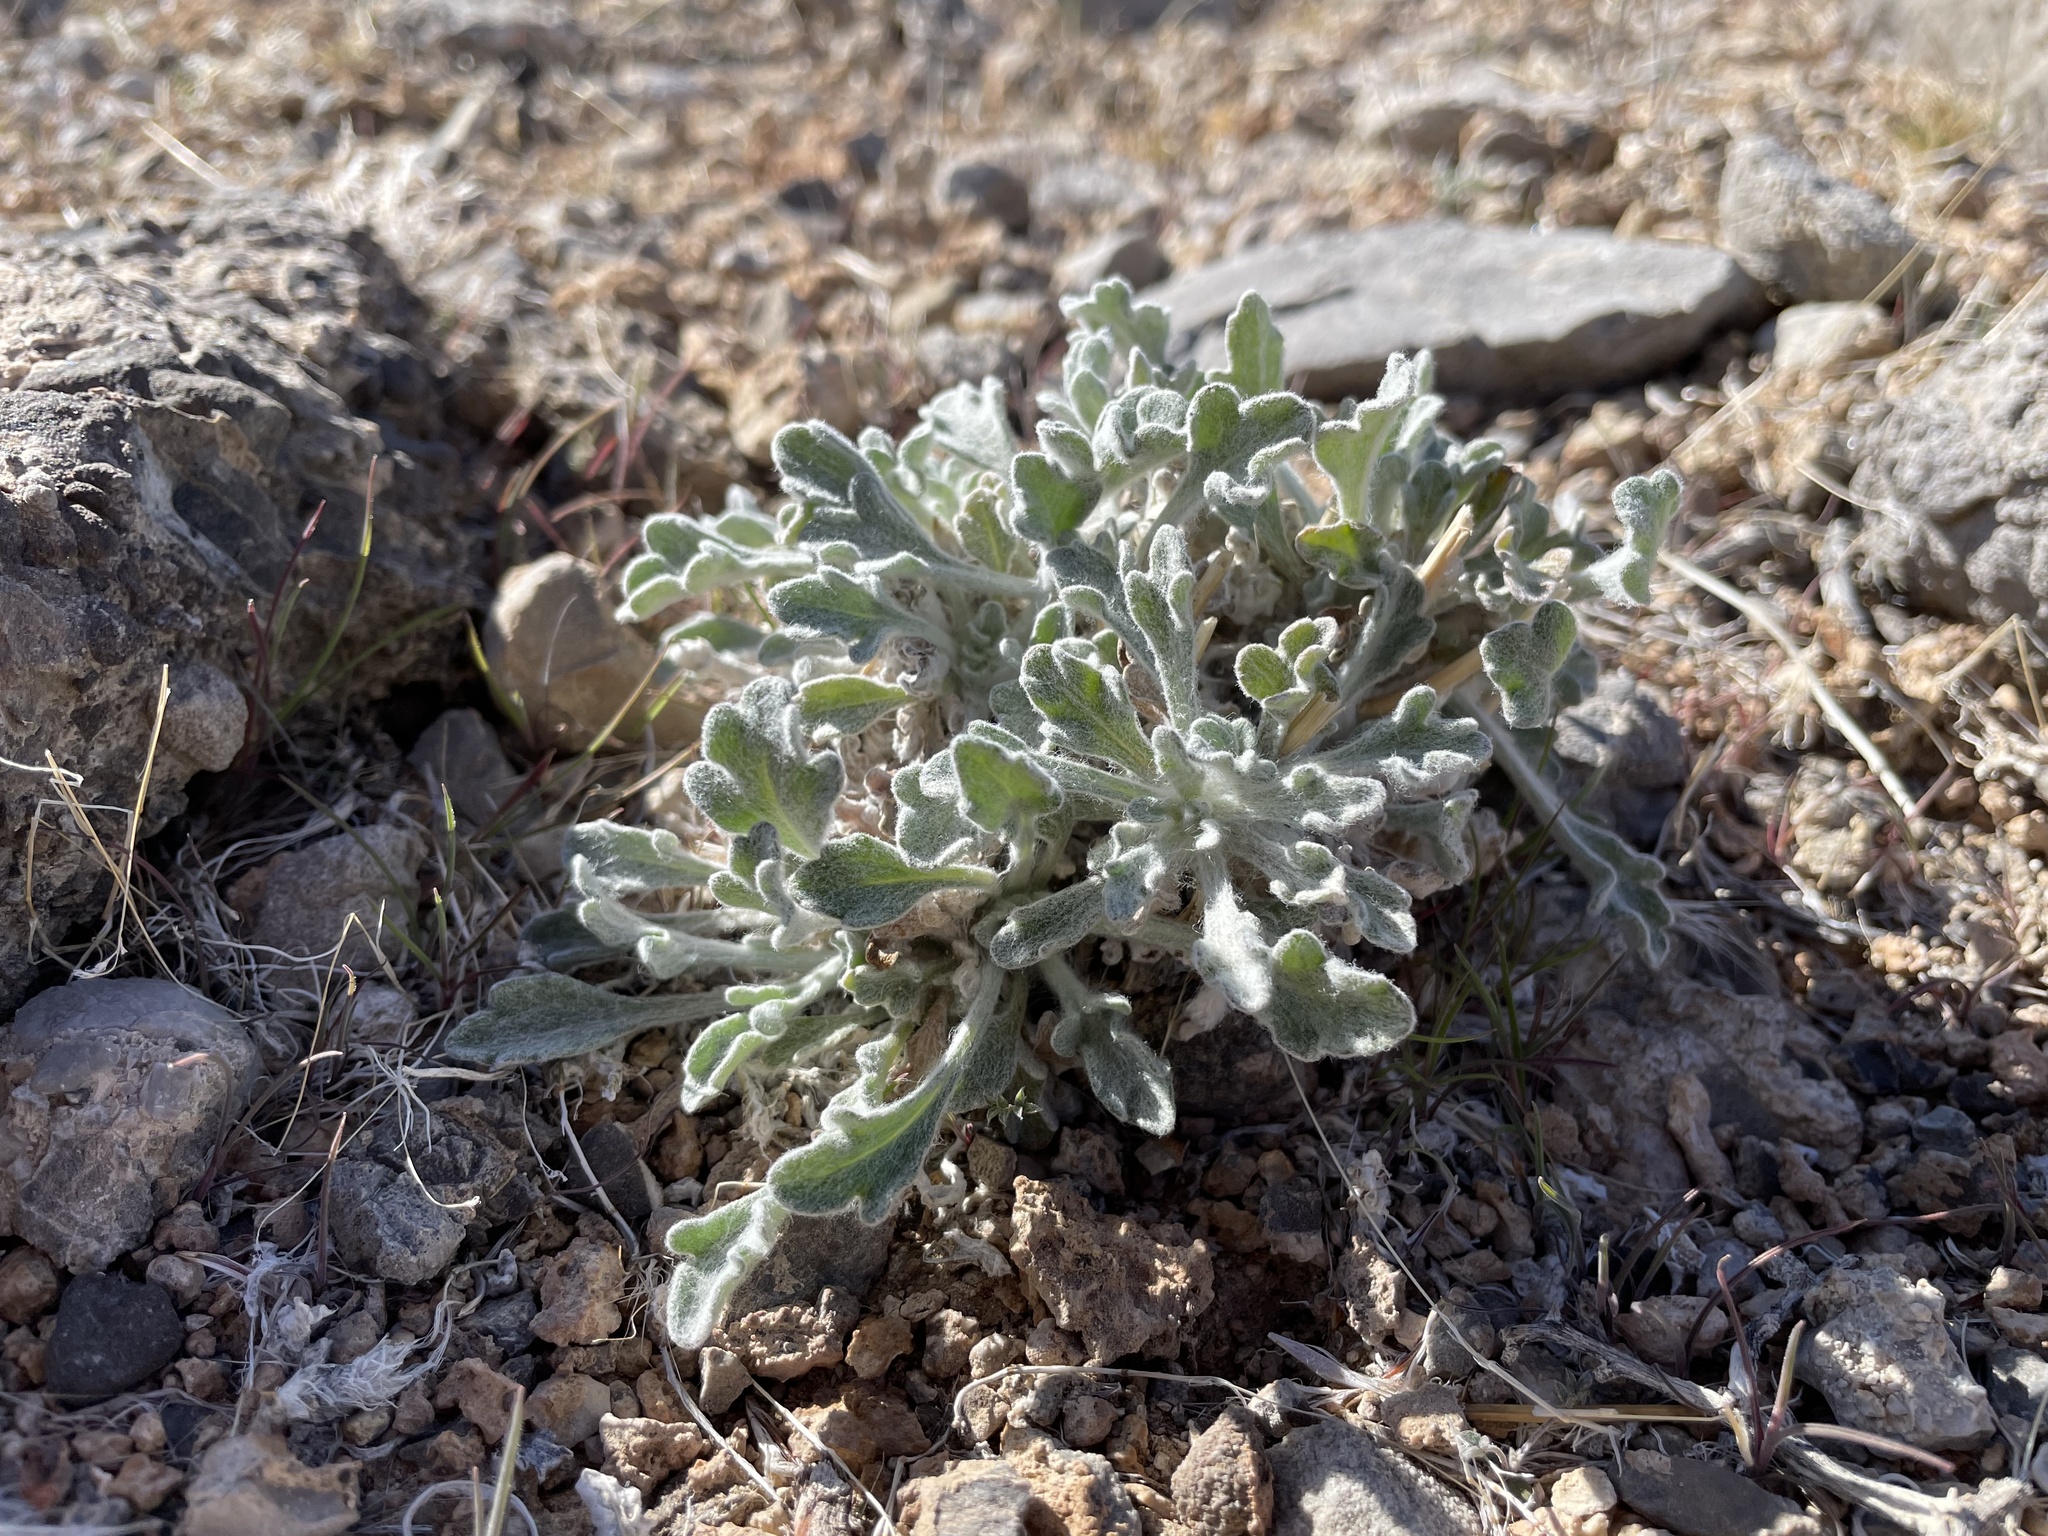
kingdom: Plantae
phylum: Tracheophyta
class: Magnoliopsida
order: Asterales
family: Asteraceae
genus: Baileya
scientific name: Baileya multiradiata
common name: Desert-marigold
